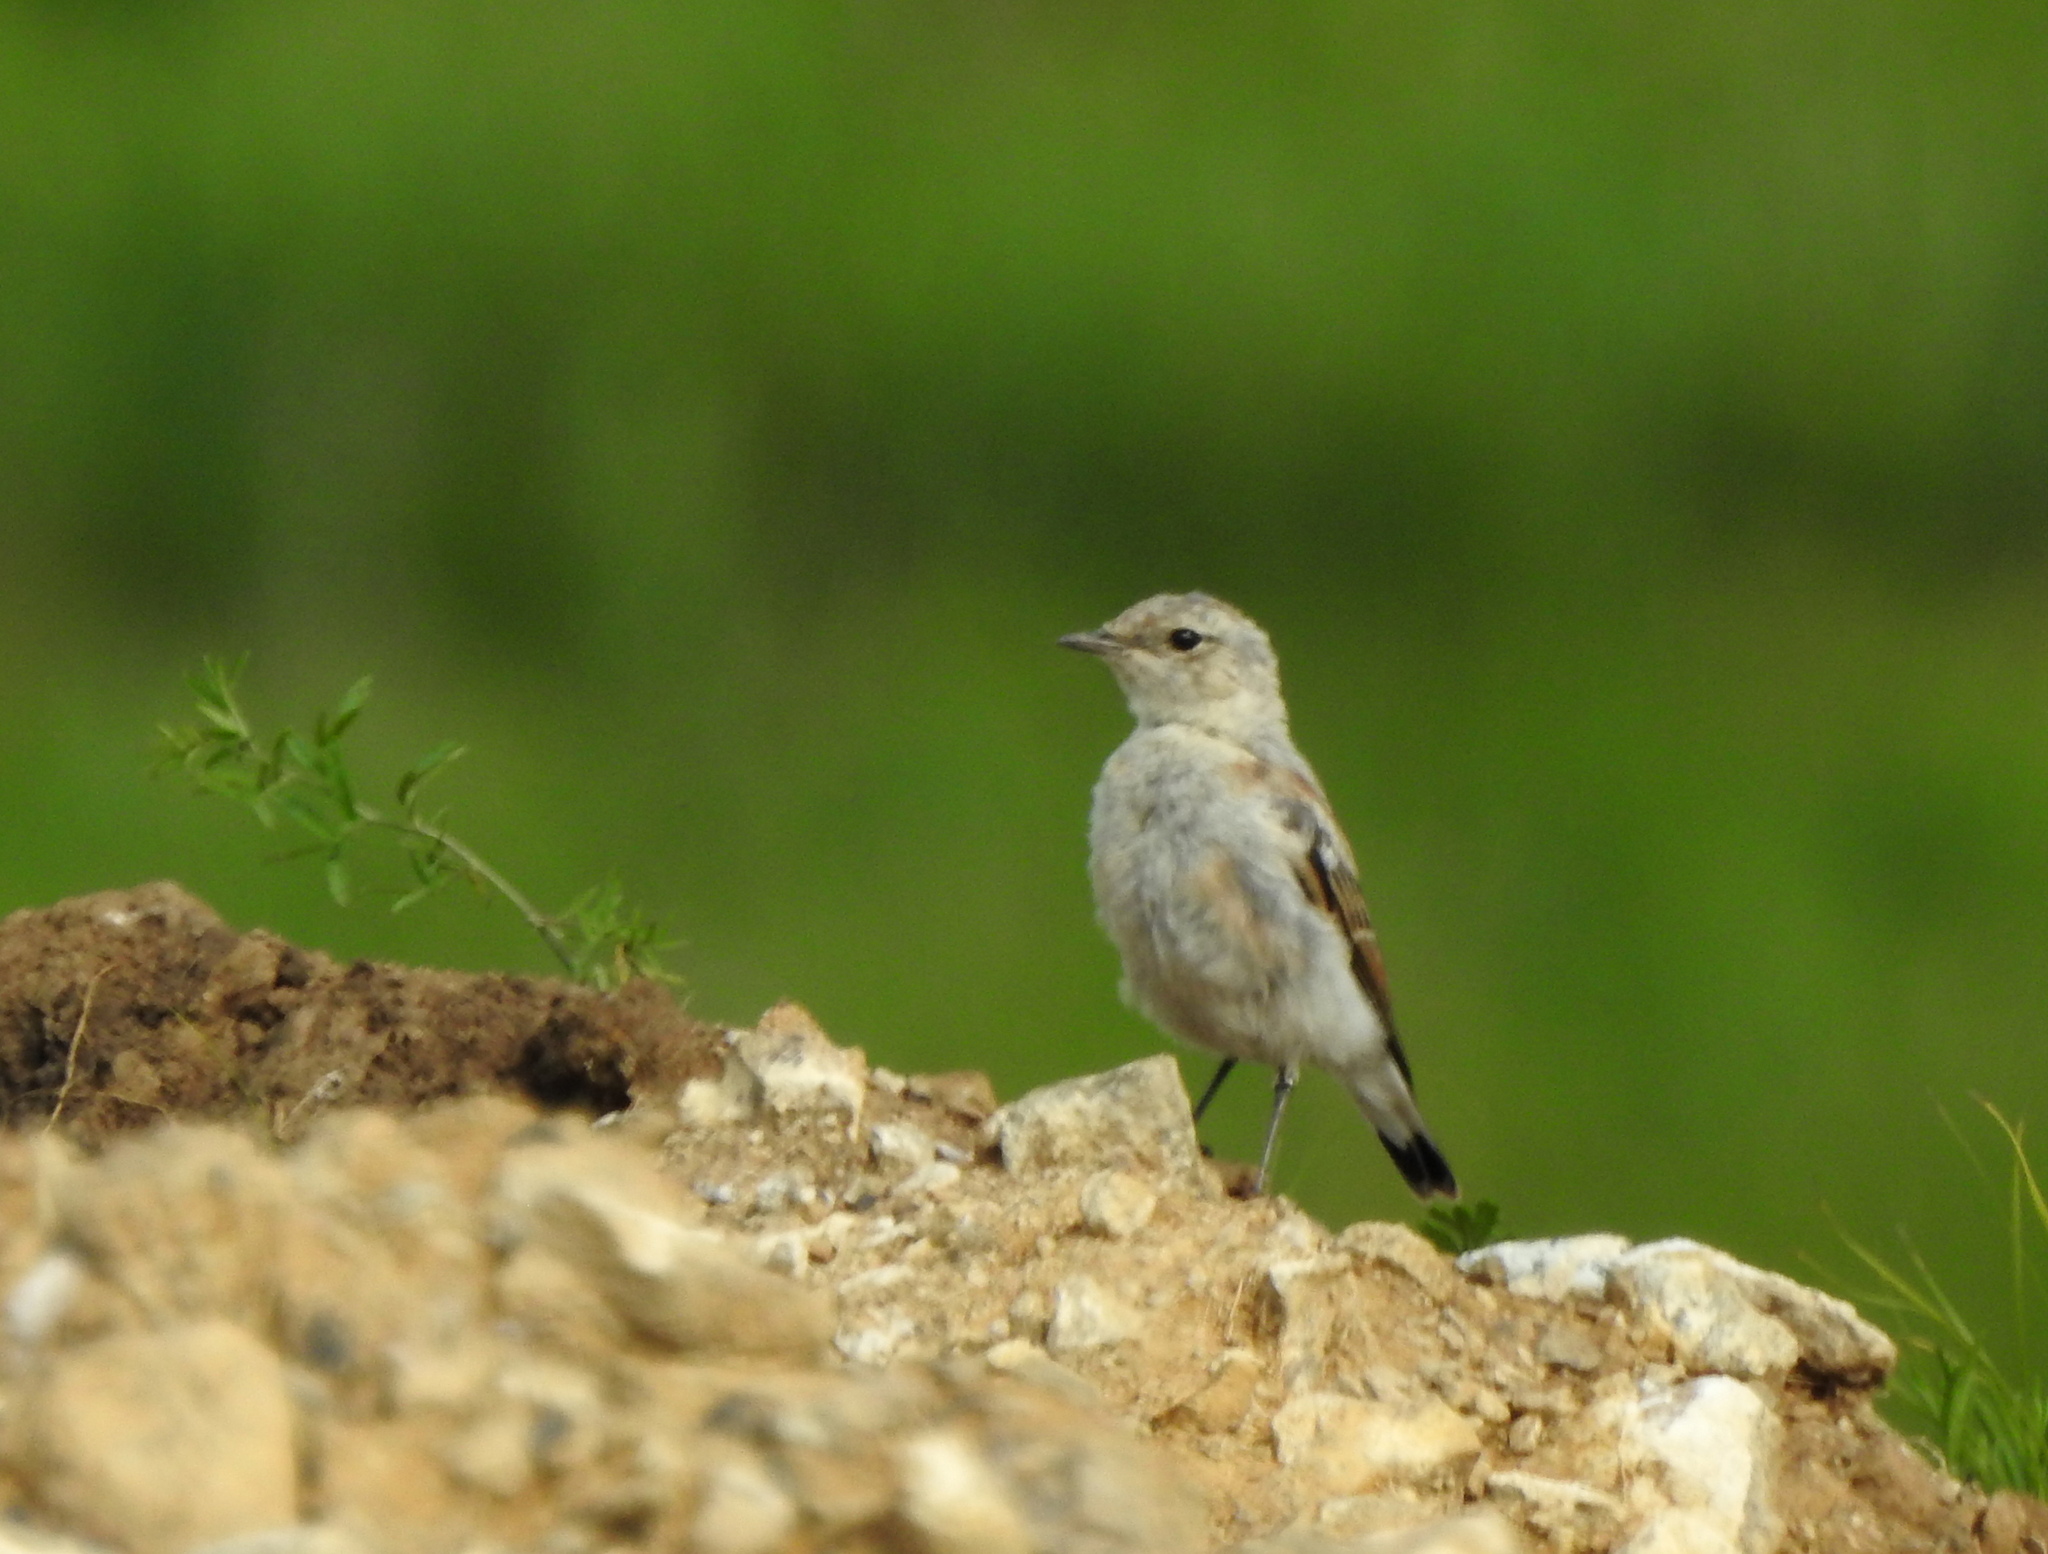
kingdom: Animalia
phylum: Chordata
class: Aves
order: Passeriformes
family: Muscicapidae
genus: Oenanthe
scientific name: Oenanthe oenanthe
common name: Northern wheatear
